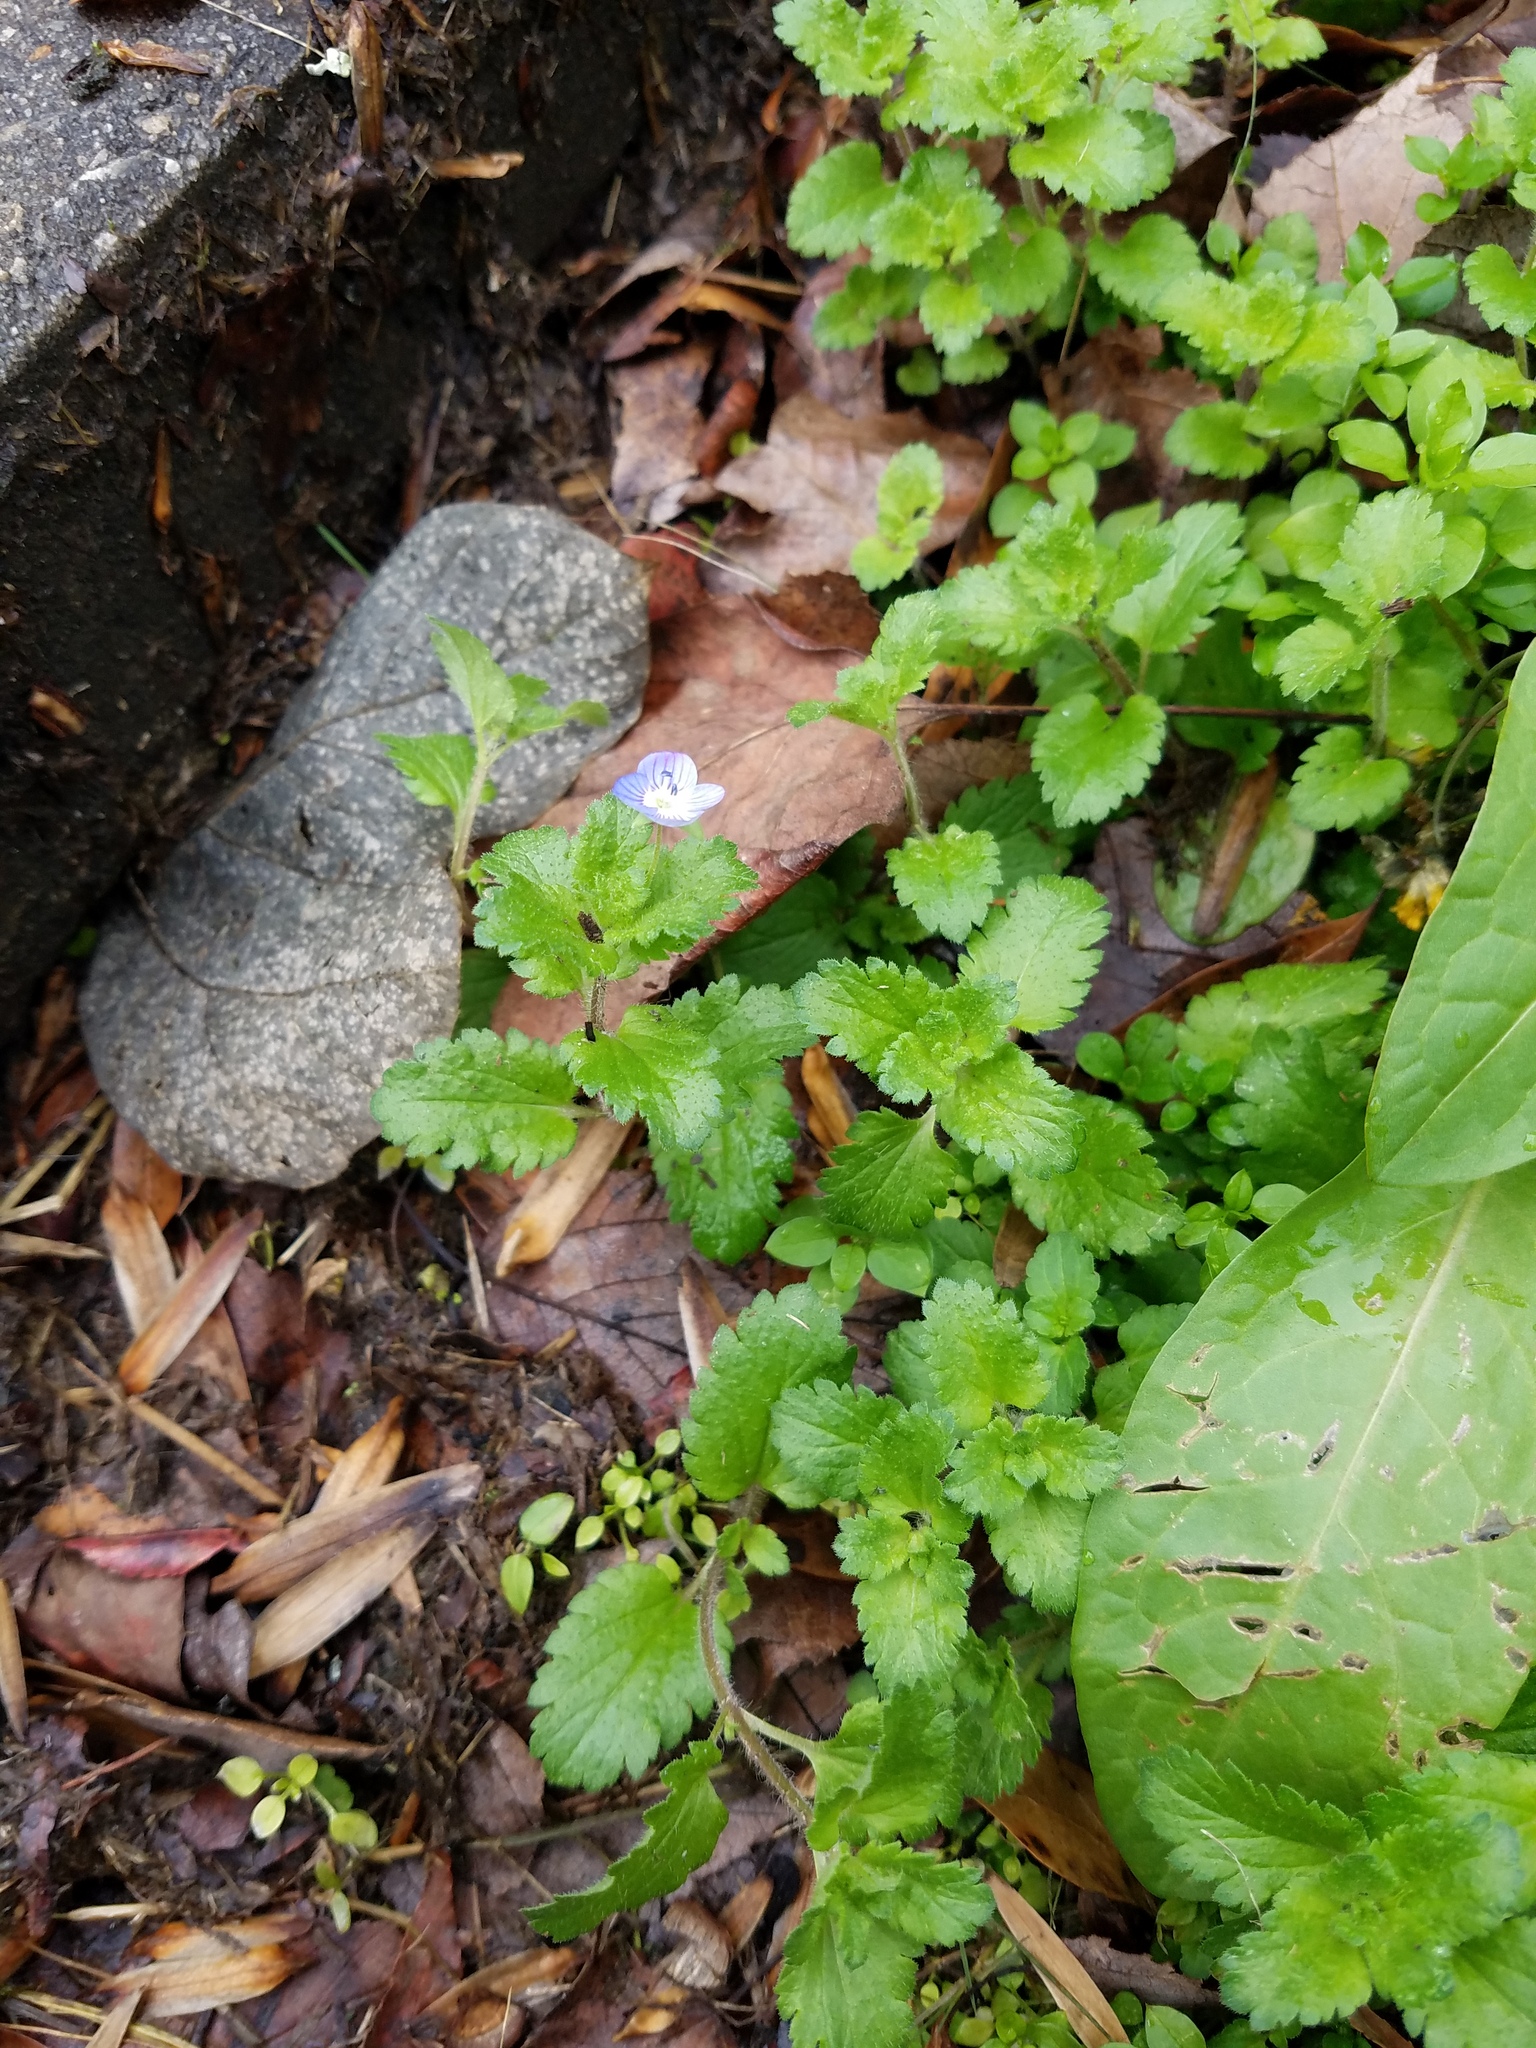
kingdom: Plantae
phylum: Tracheophyta
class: Magnoliopsida
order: Lamiales
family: Plantaginaceae
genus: Veronica
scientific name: Veronica persica
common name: Common field-speedwell
